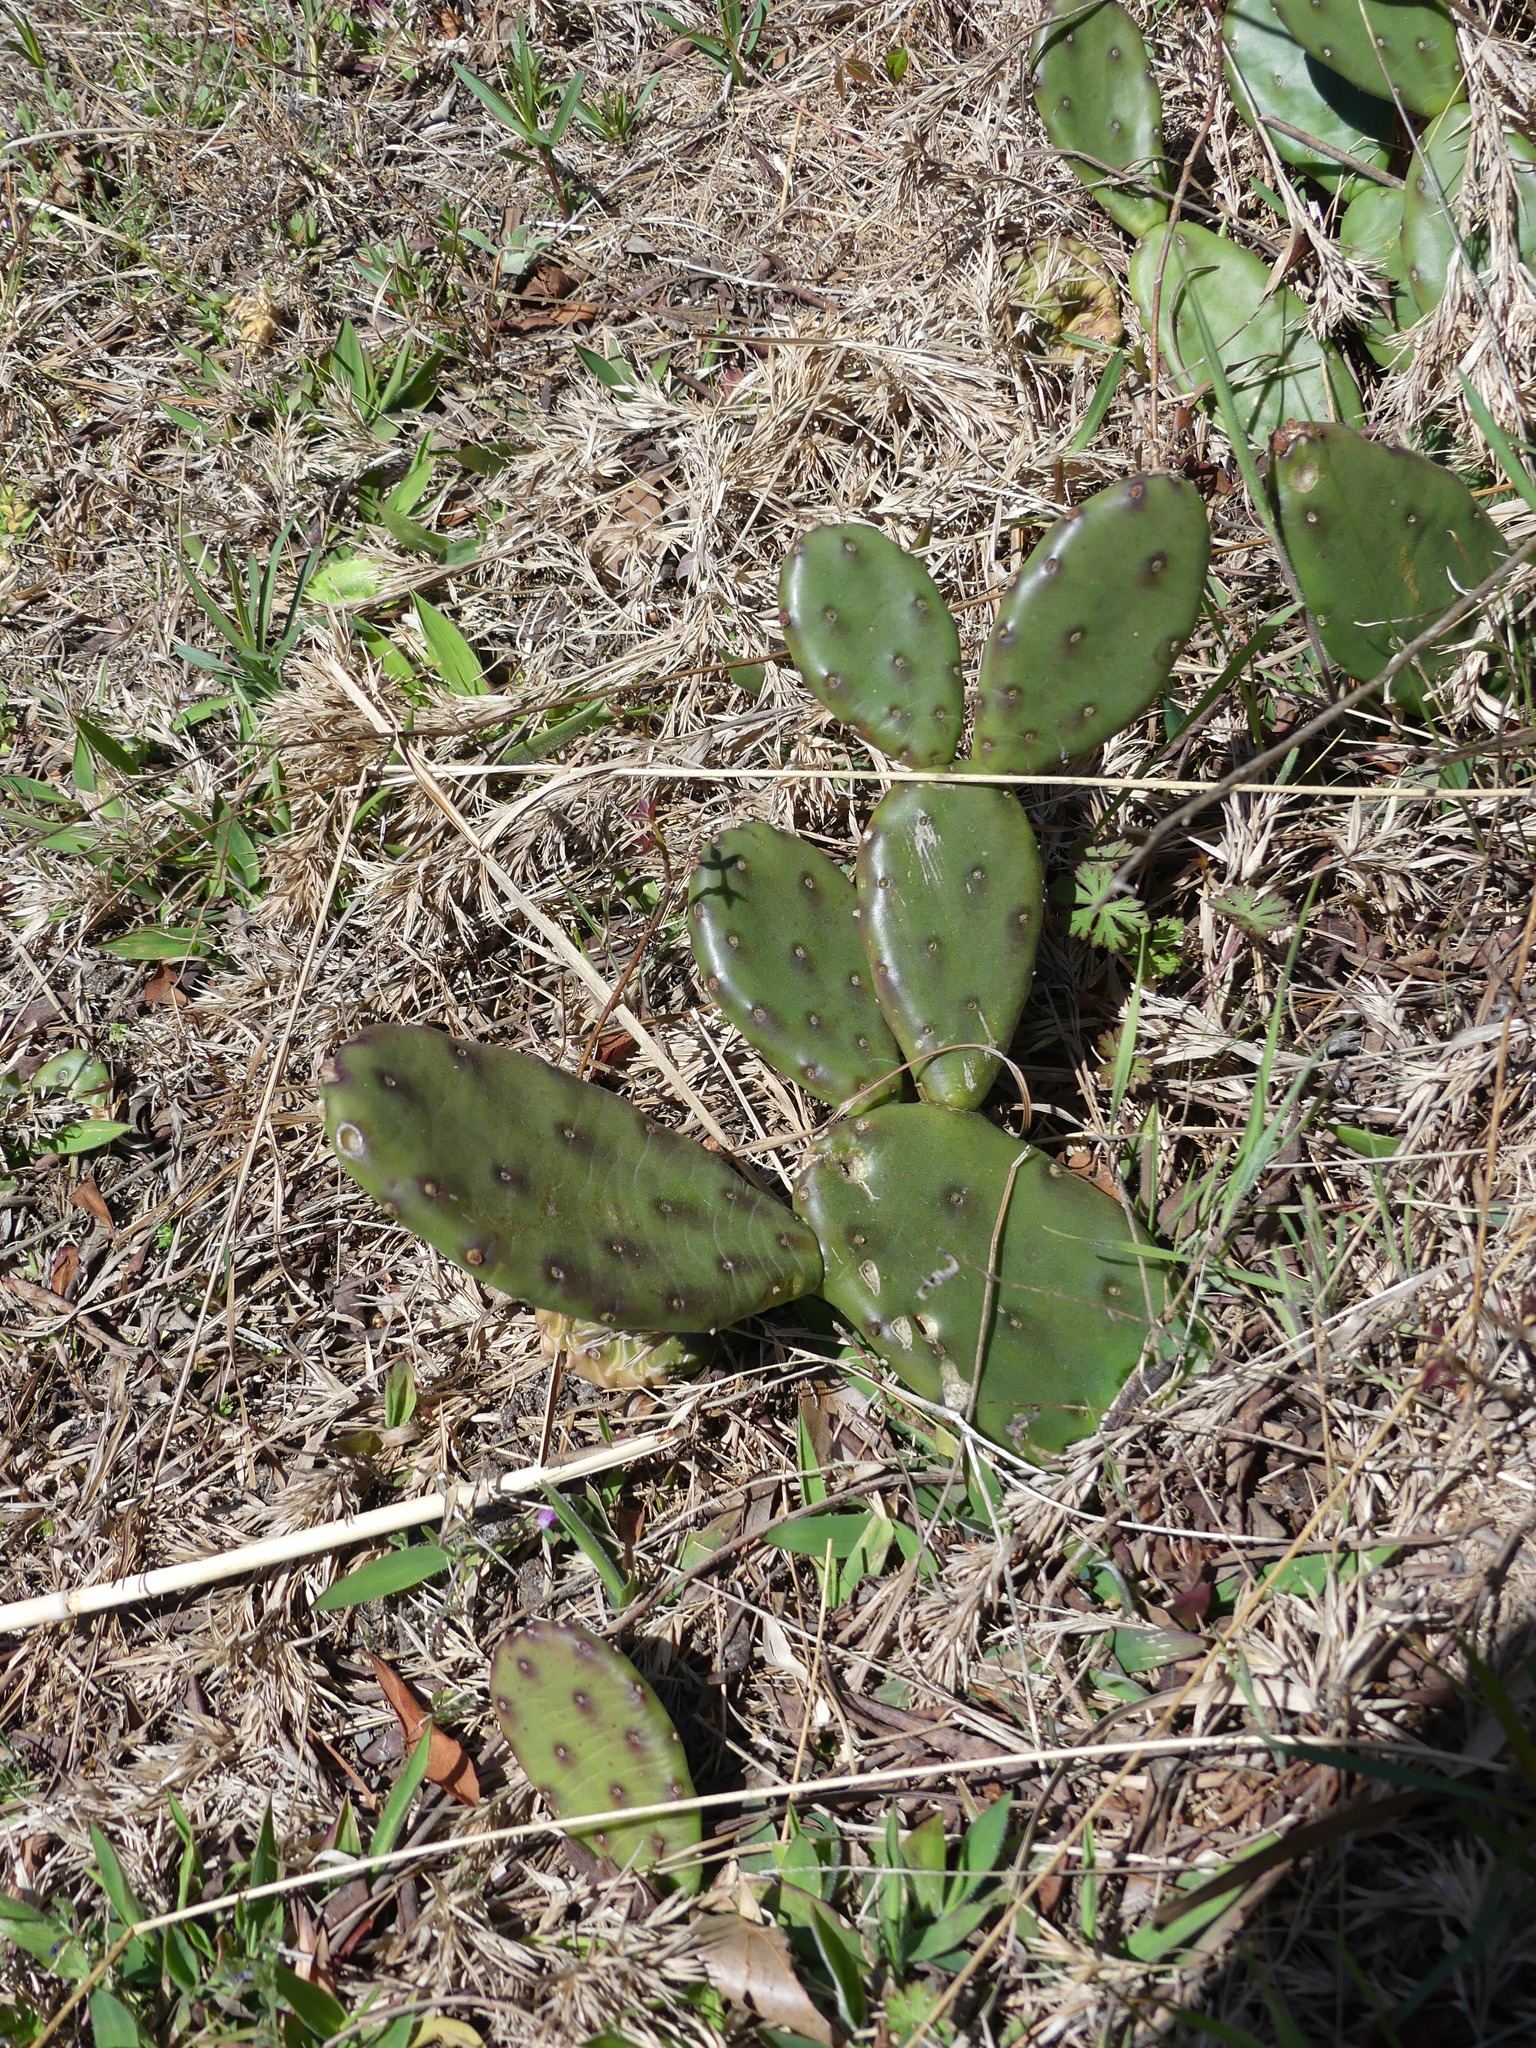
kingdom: Plantae
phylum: Tracheophyta
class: Magnoliopsida
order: Caryophyllales
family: Cactaceae
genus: Opuntia
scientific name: Opuntia humifusa
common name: Eastern prickly-pear
